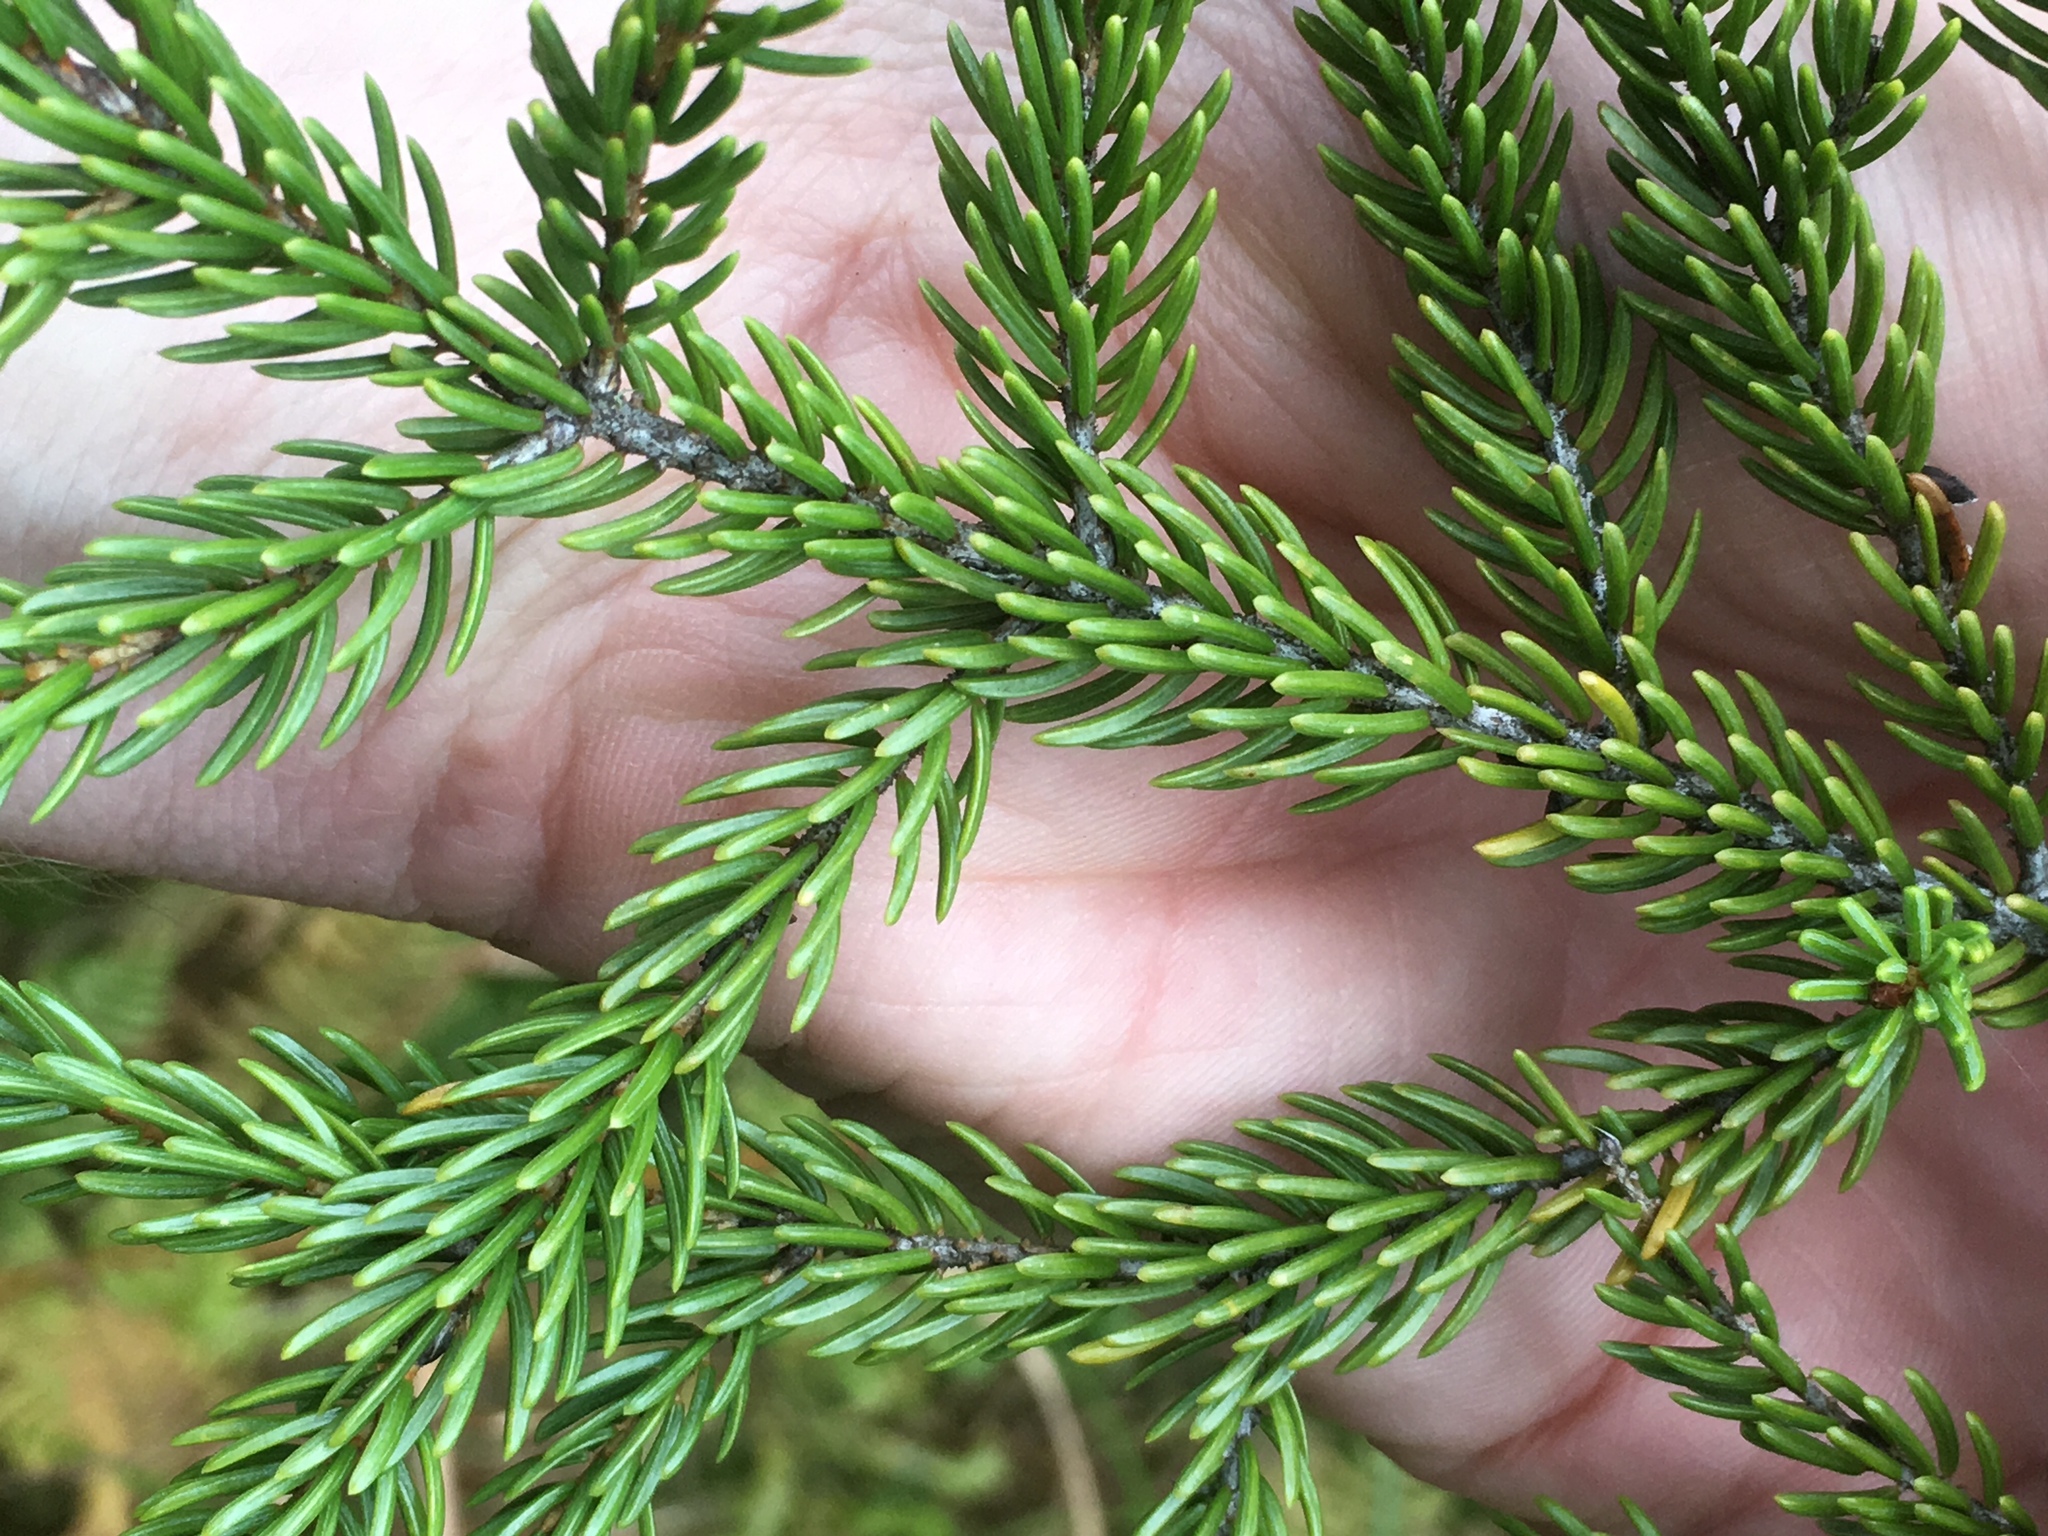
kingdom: Plantae
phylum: Tracheophyta
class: Pinopsida
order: Pinales
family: Pinaceae
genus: Picea
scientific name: Picea mariana
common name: Black spruce
